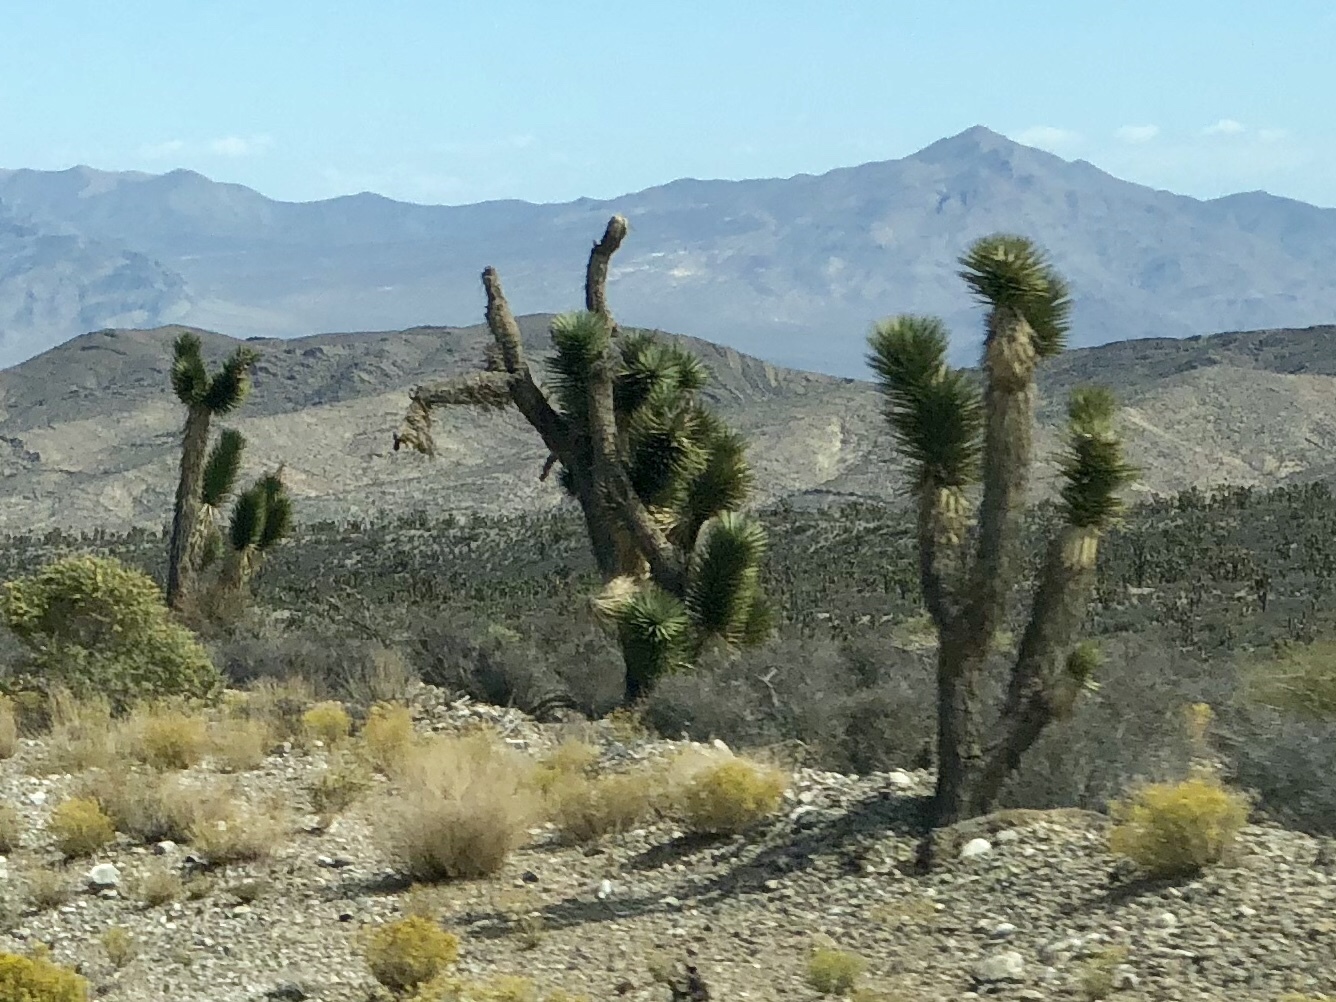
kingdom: Plantae
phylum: Tracheophyta
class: Liliopsida
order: Asparagales
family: Asparagaceae
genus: Yucca
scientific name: Yucca brevifolia
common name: Joshua tree
